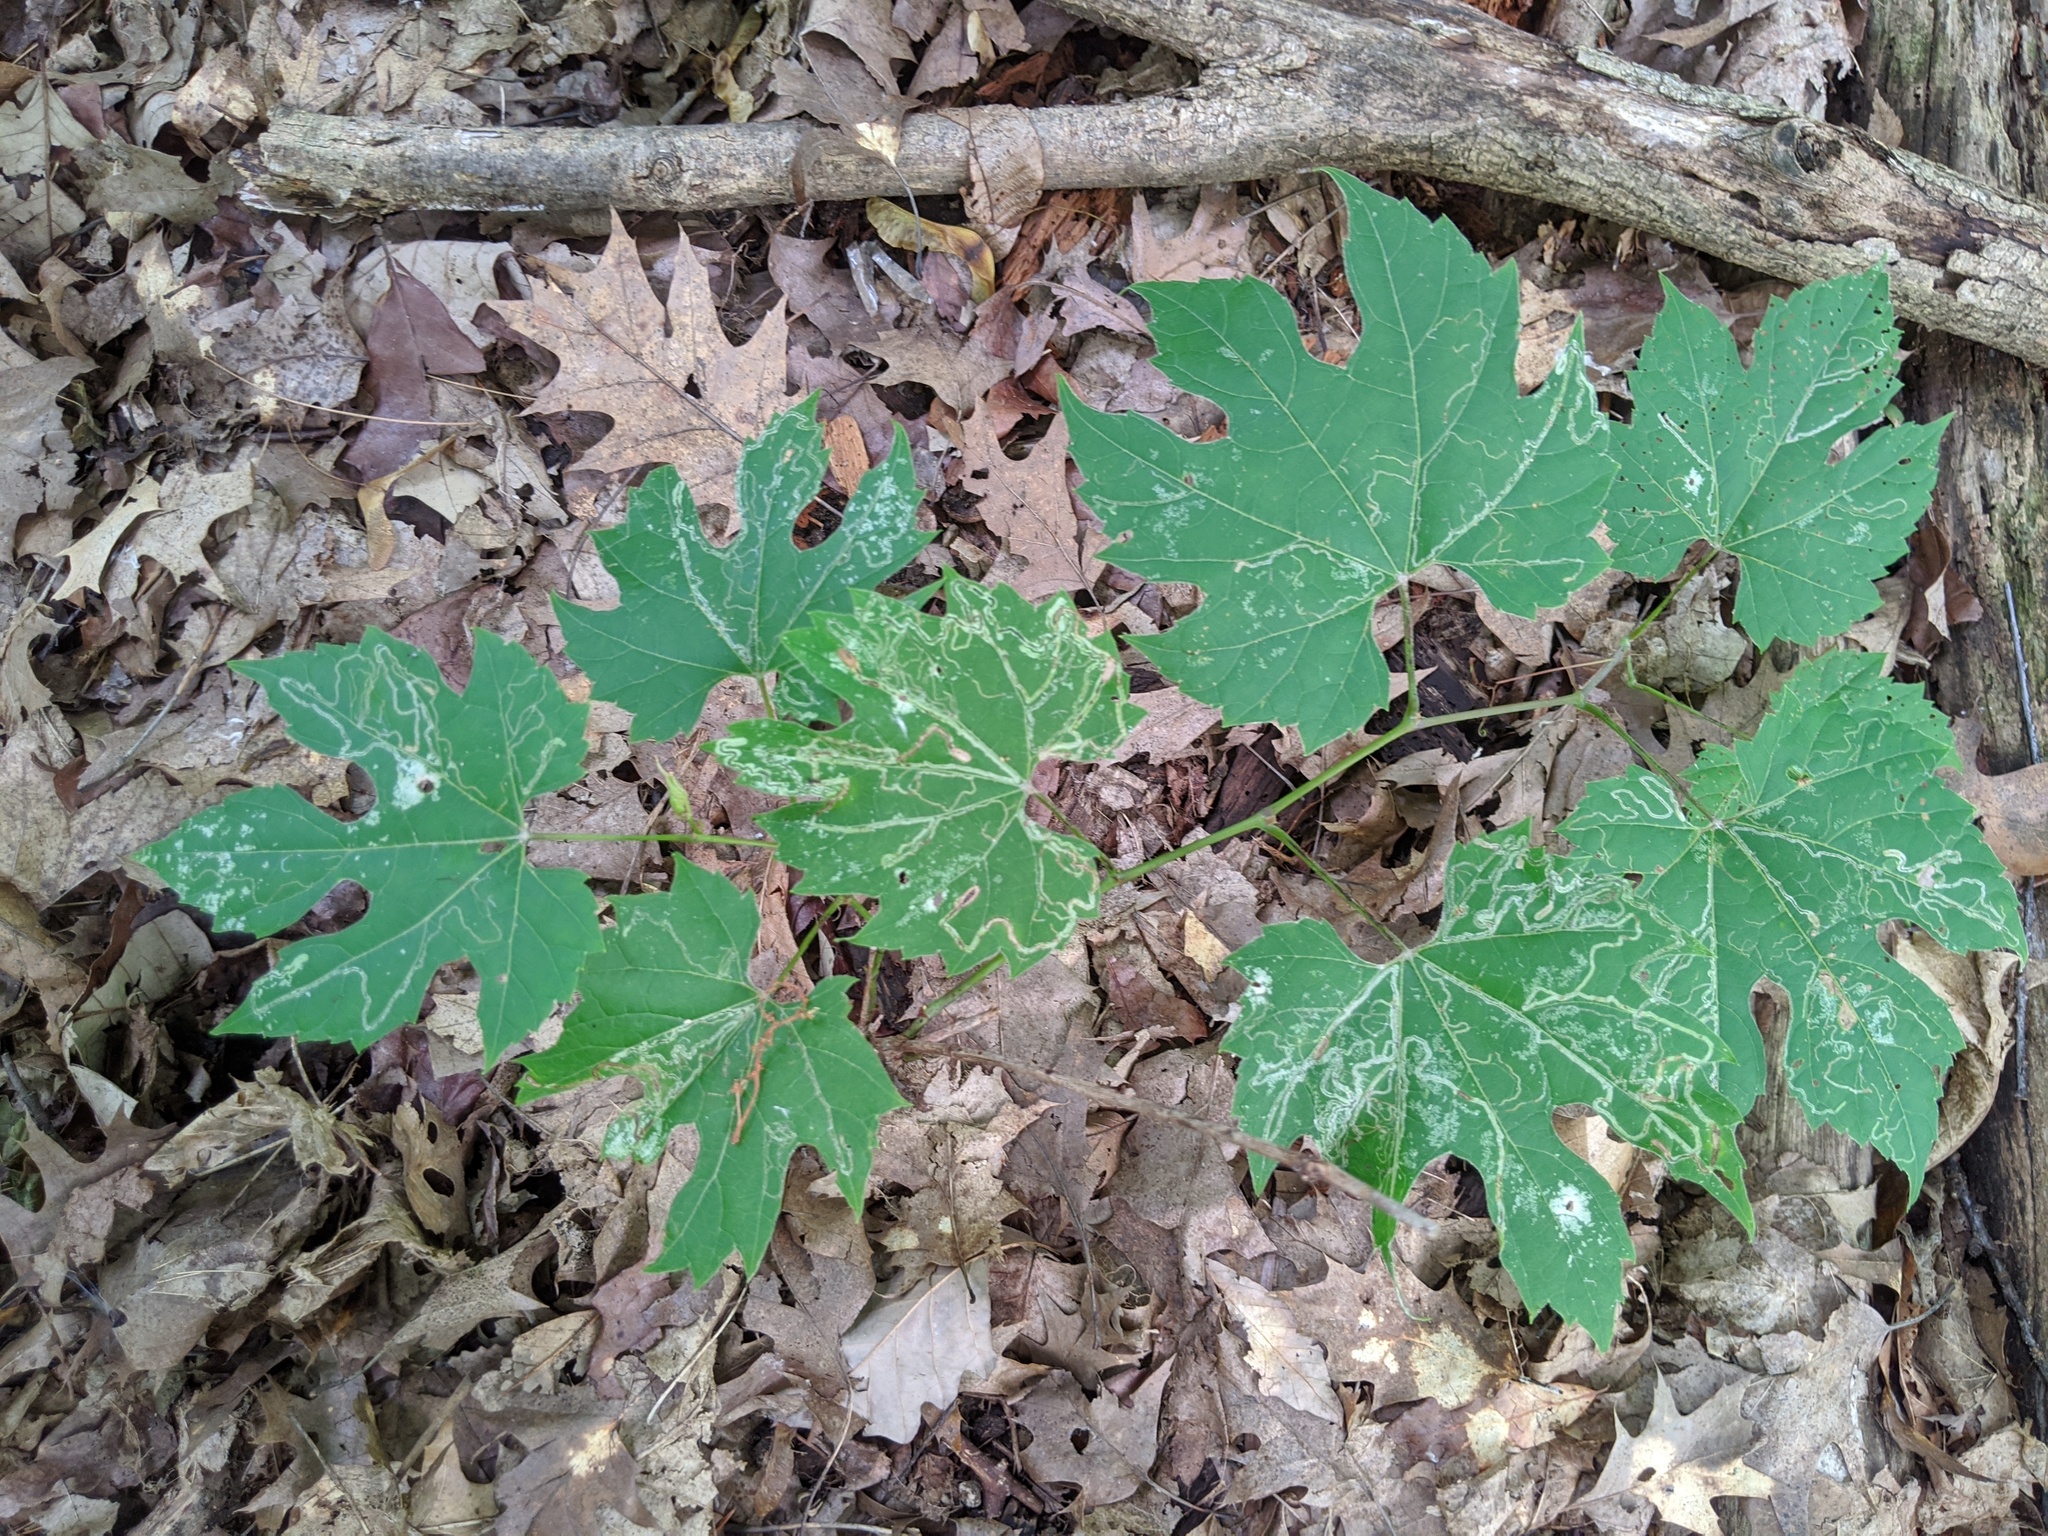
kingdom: Animalia
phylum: Arthropoda
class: Insecta
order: Lepidoptera
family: Gracillariidae
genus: Phyllocnistis
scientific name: Phyllocnistis vitifoliella
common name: Grape leaf-miner moth
